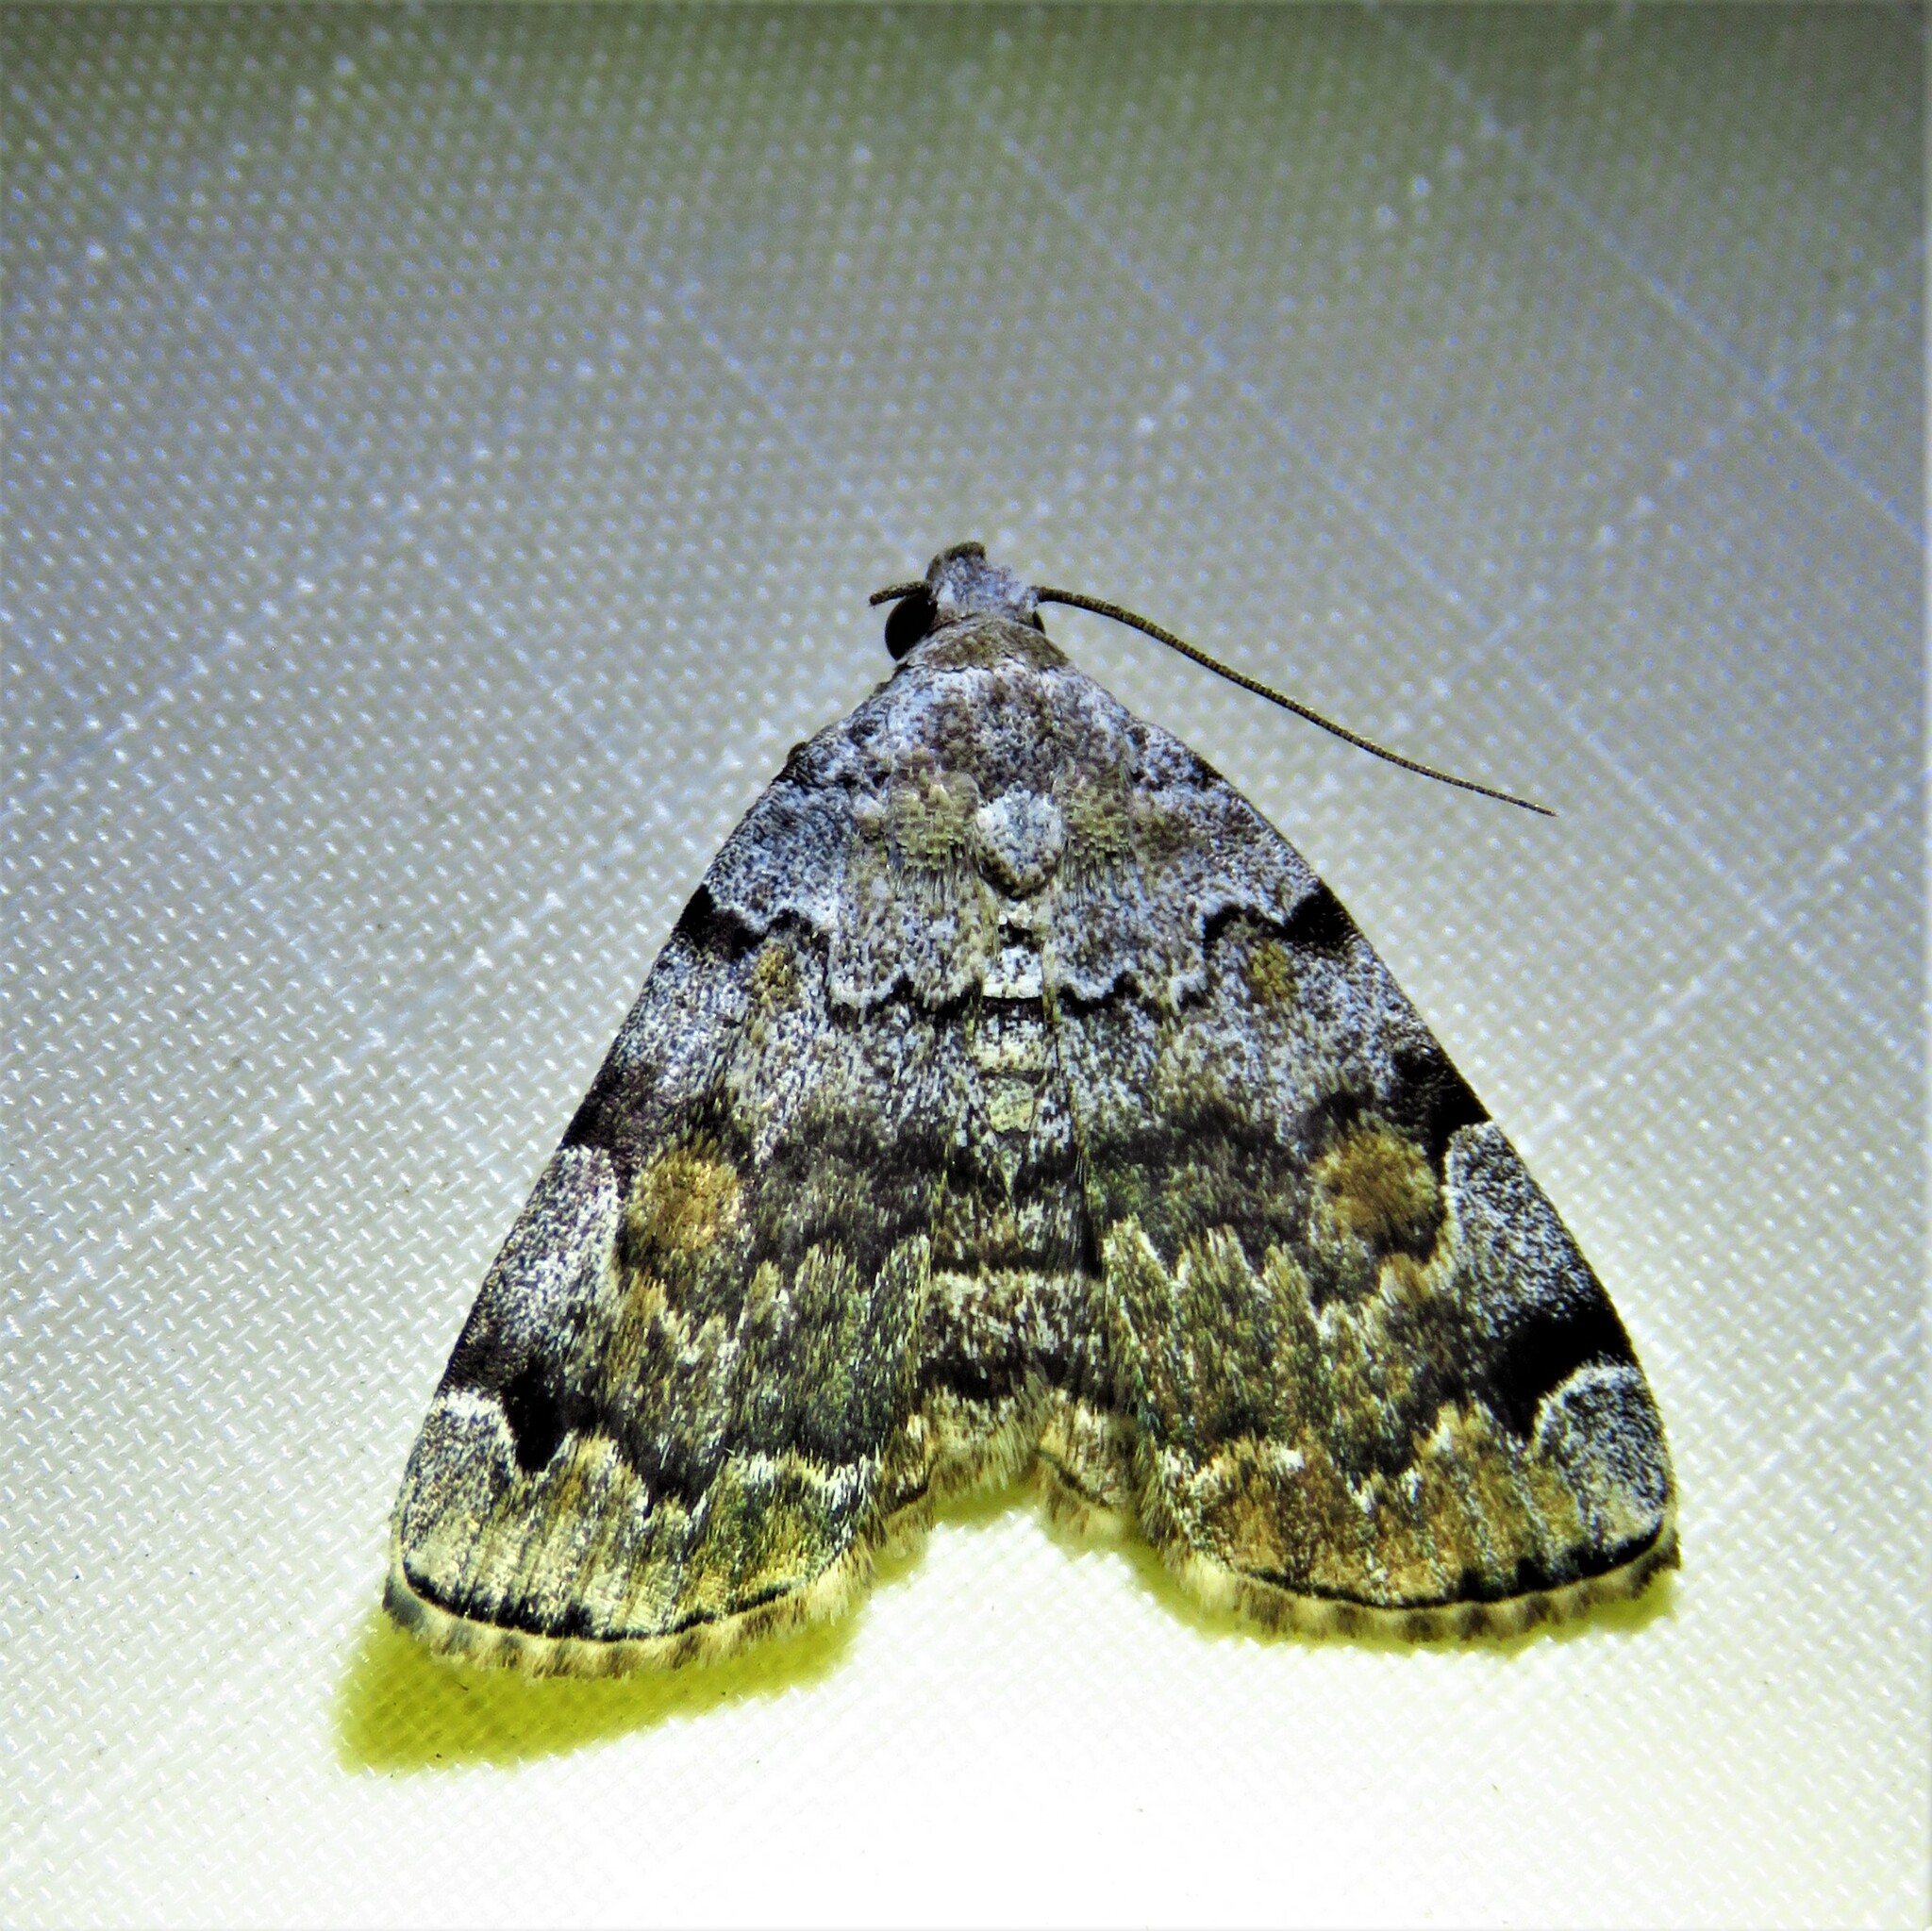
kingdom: Animalia
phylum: Arthropoda
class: Insecta
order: Lepidoptera
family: Erebidae
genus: Idia
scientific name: Idia americalis
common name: American idia moth
